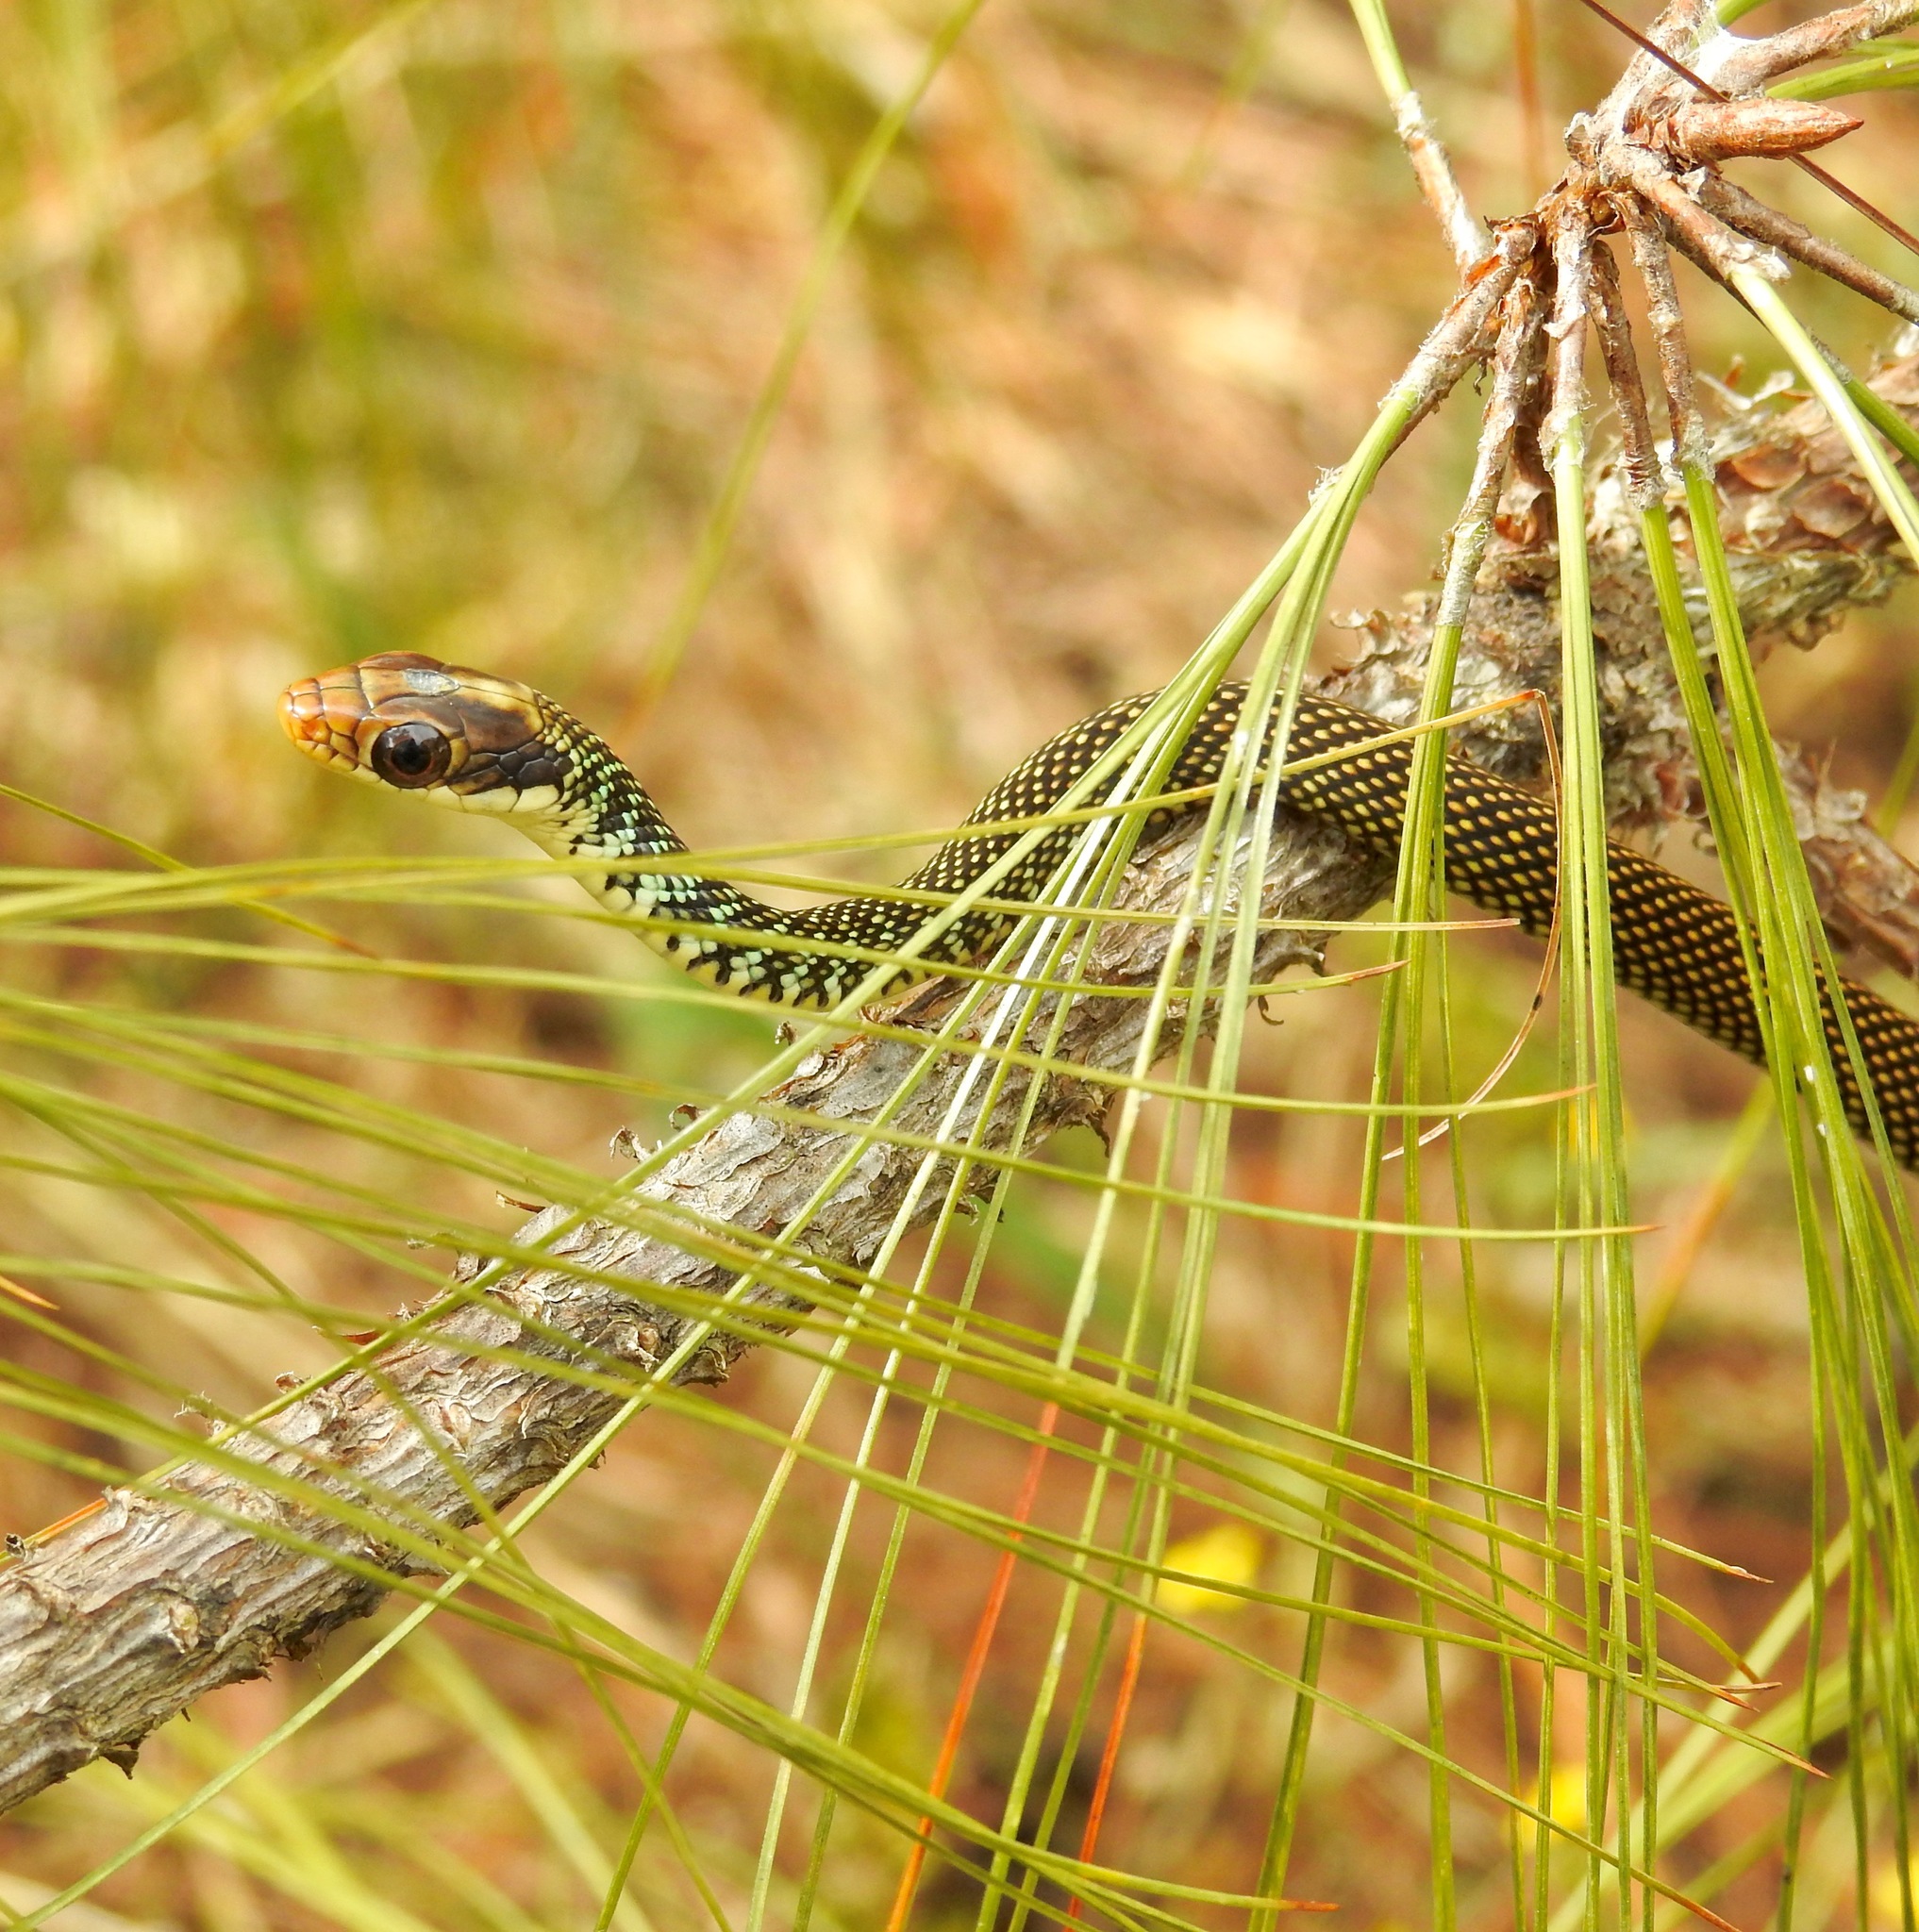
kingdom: Animalia
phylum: Chordata
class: Squamata
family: Colubridae
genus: Drymobius
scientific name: Drymobius margaritiferus
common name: Central american speckled racer
